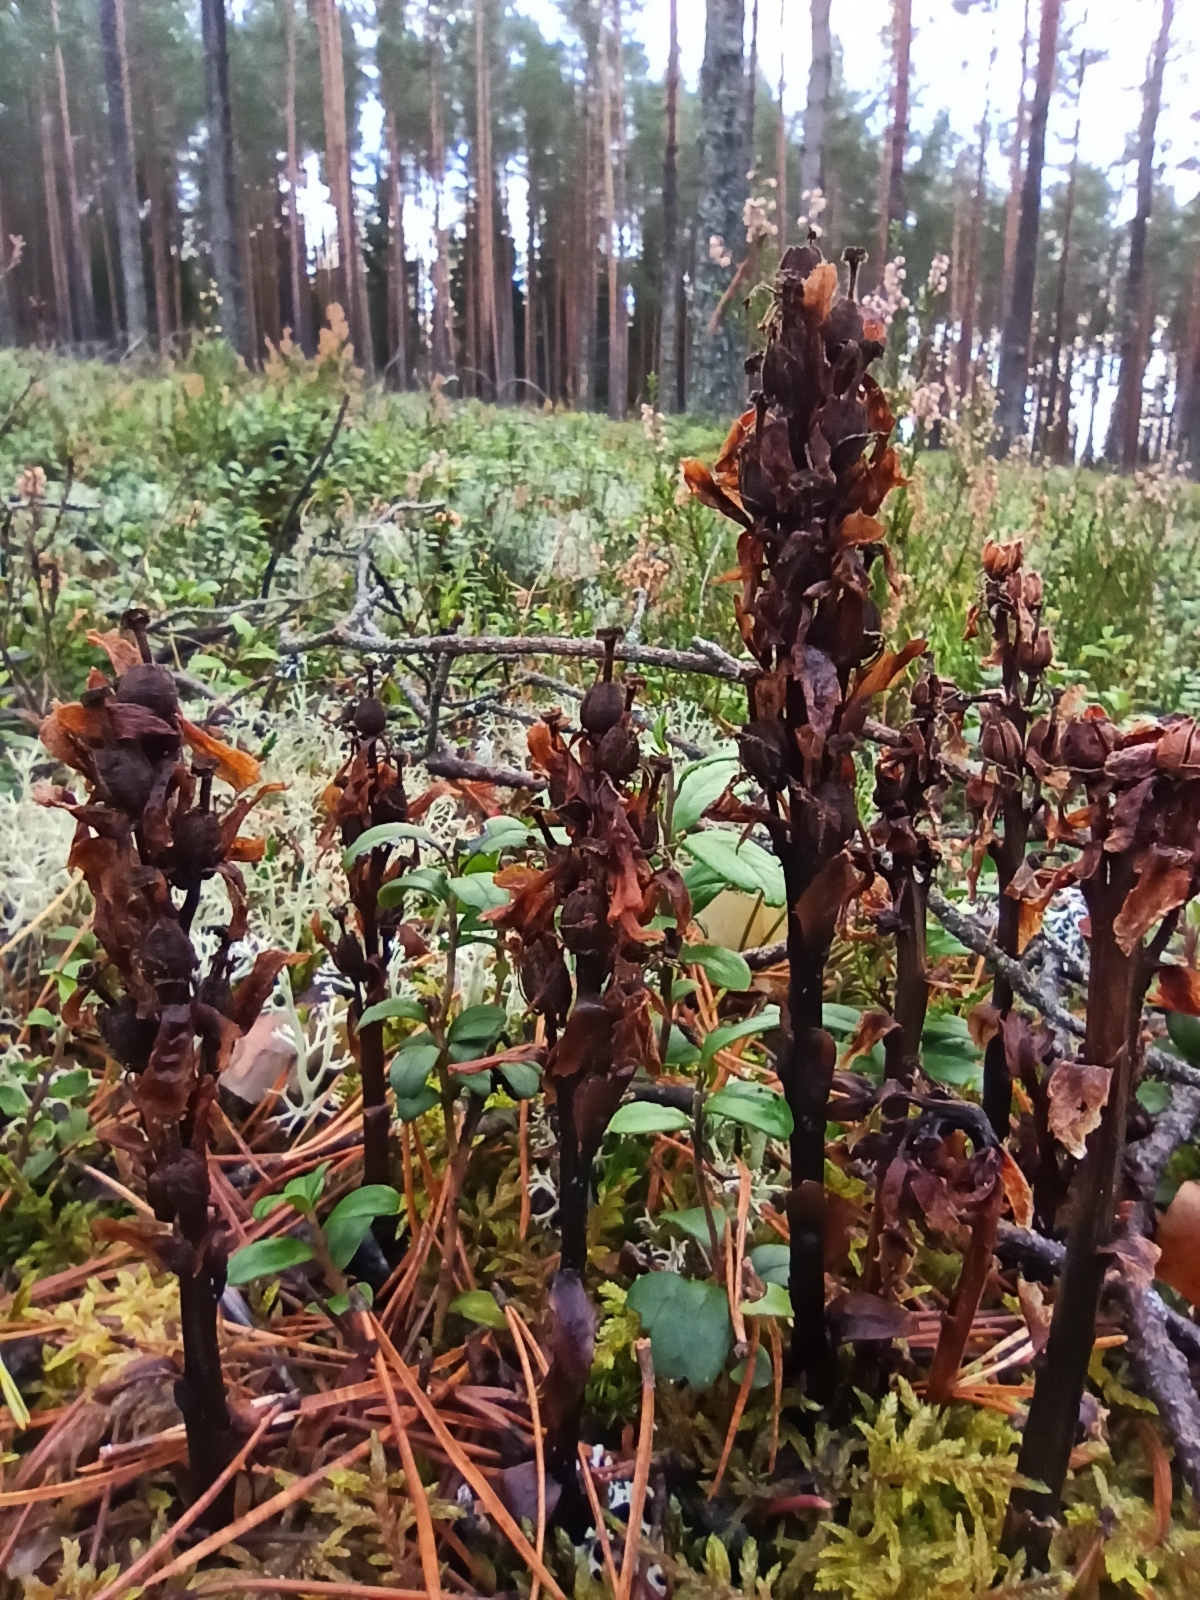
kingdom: Plantae
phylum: Tracheophyta
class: Magnoliopsida
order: Ericales
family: Ericaceae
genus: Hypopitys
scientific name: Hypopitys monotropa
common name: Yellow bird's-nest
